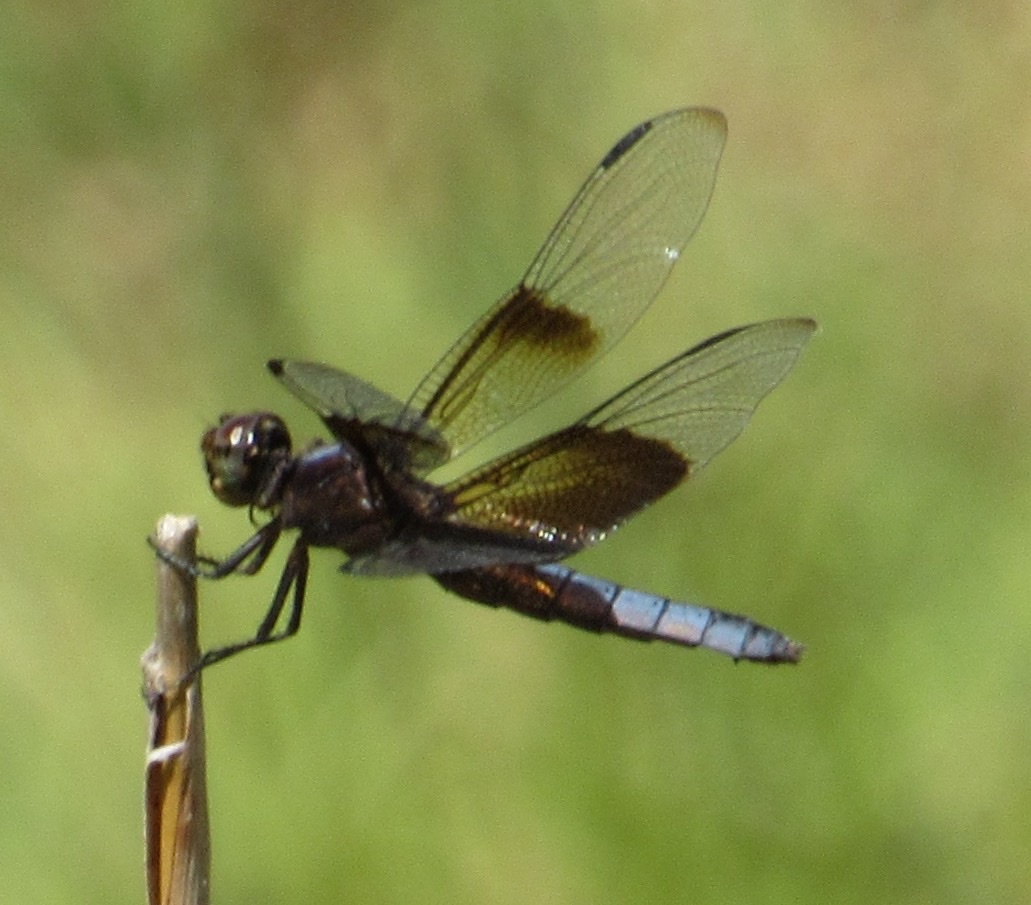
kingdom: Animalia
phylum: Arthropoda
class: Insecta
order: Odonata
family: Libellulidae
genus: Libellula
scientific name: Libellula luctuosa
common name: Widow skimmer
